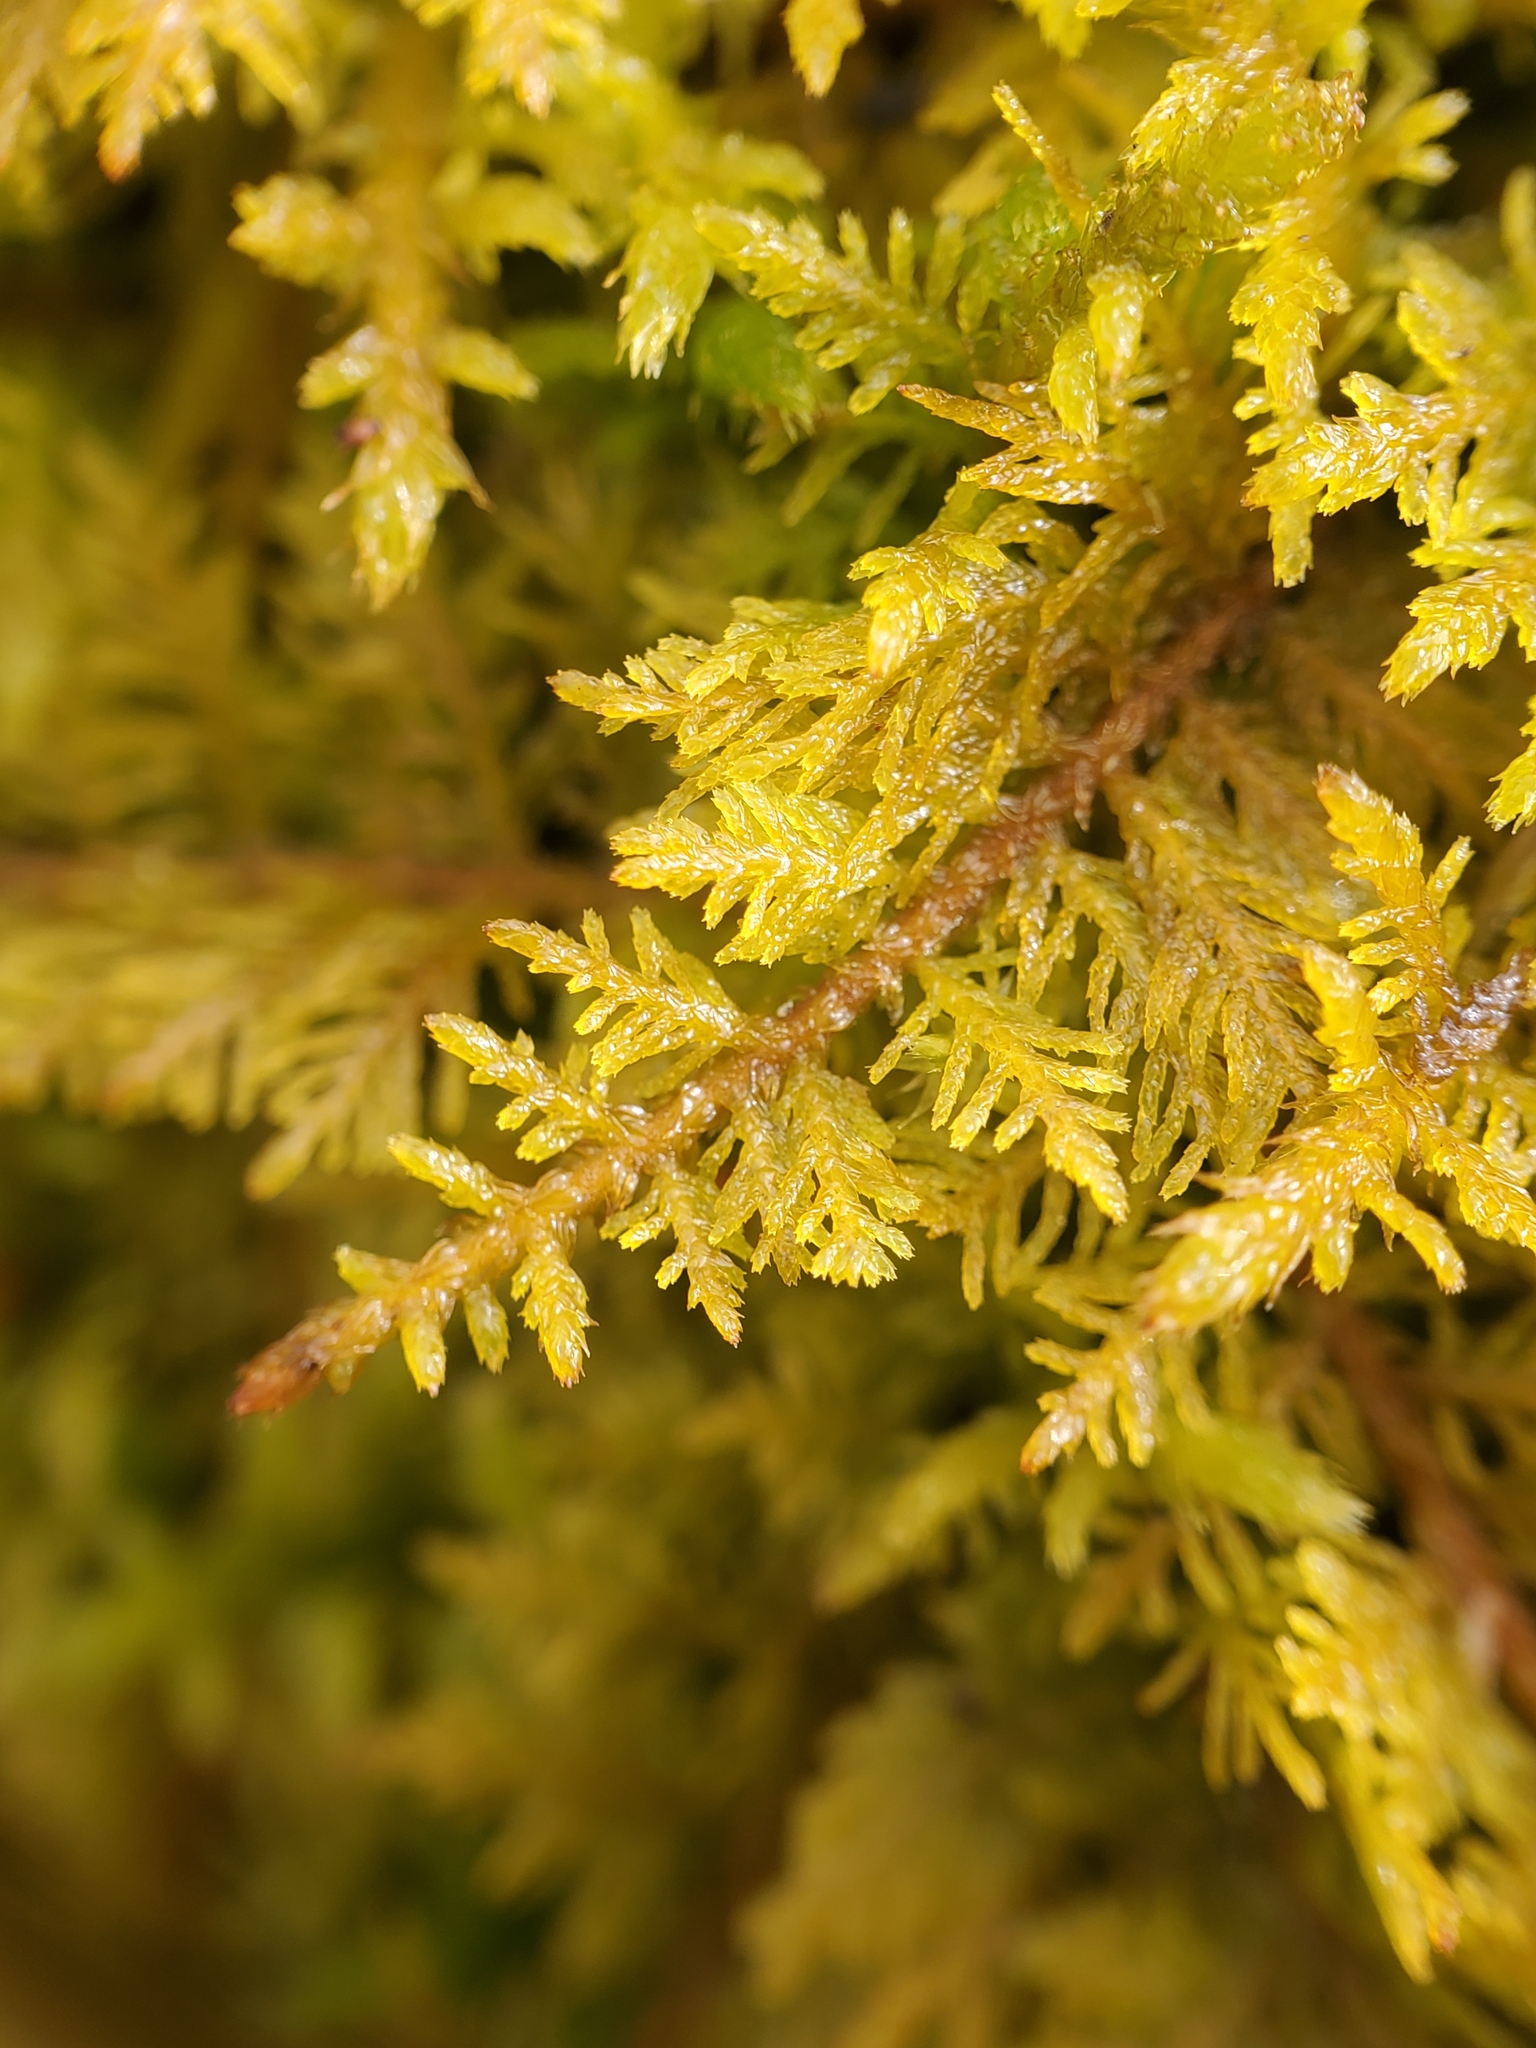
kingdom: Plantae
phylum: Bryophyta
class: Bryopsida
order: Hypnales
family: Thuidiaceae
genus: Thuidium
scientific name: Thuidium delicatulum
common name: Delicate fern moss
